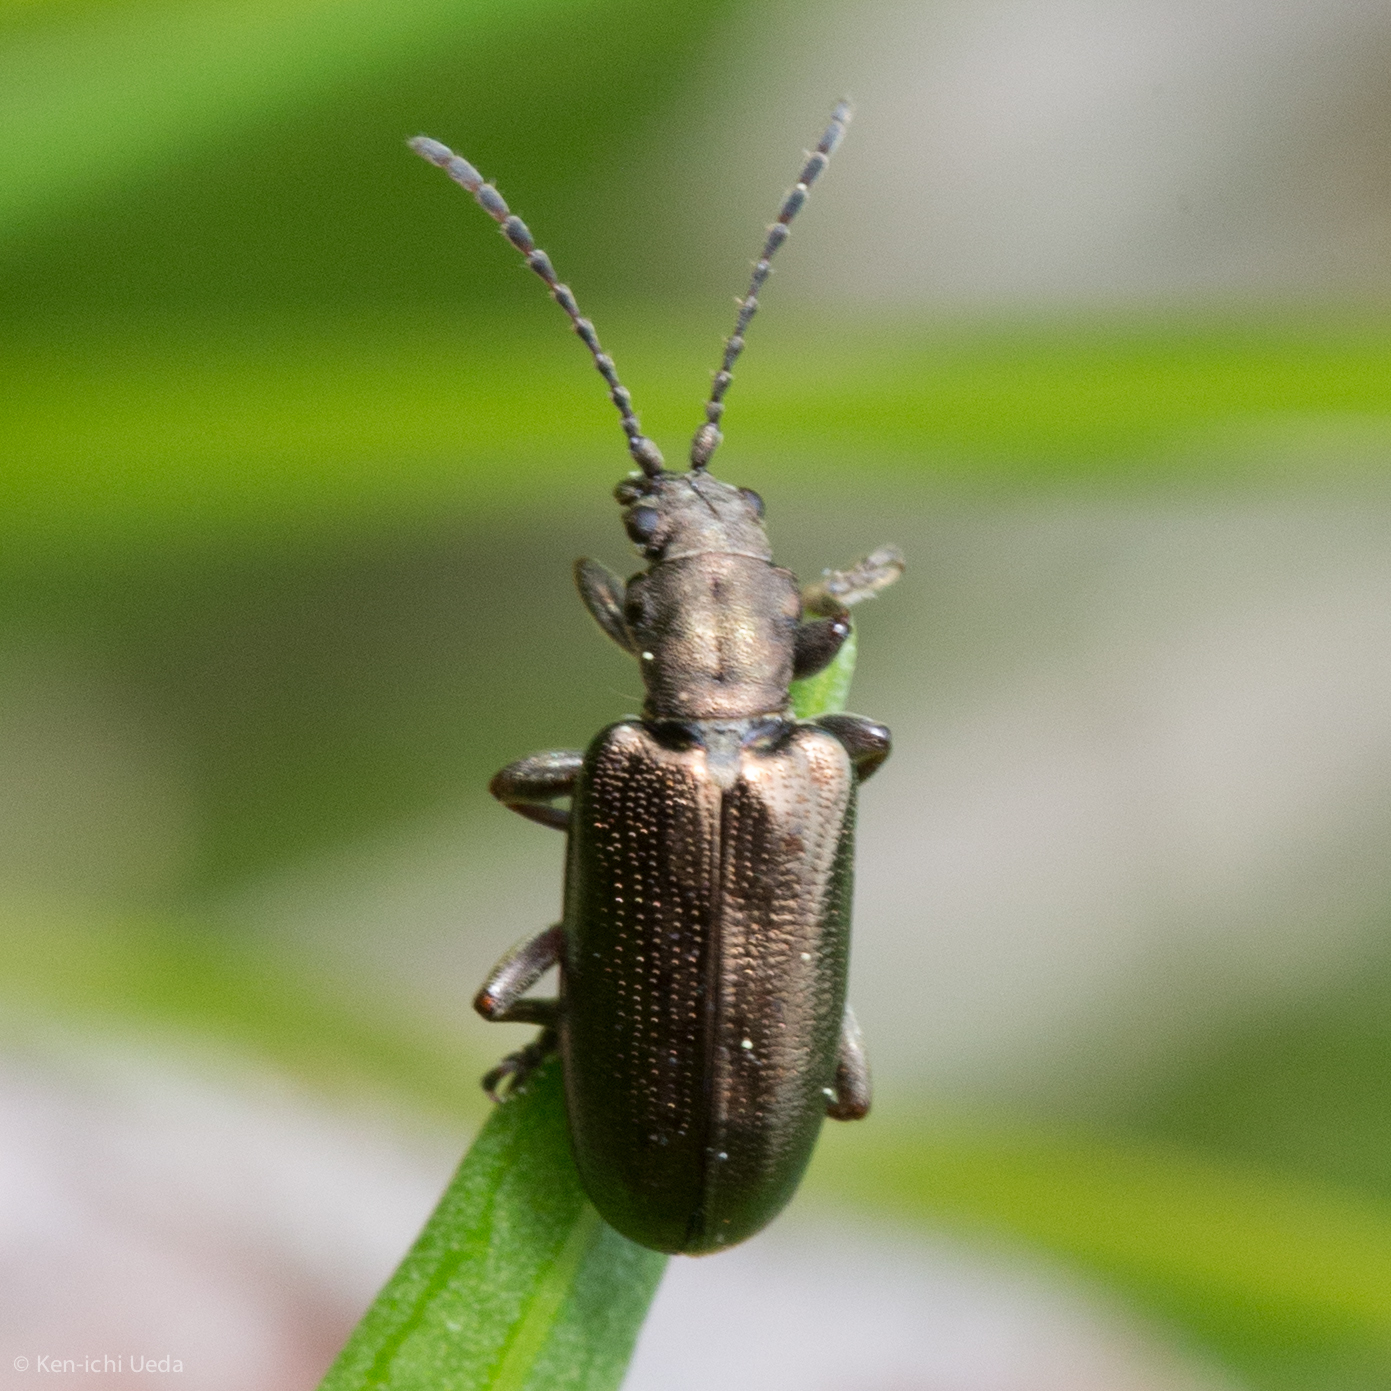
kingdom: Animalia
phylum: Arthropoda
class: Insecta
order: Coleoptera
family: Chrysomelidae
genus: Plateumaris
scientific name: Plateumaris nitida
